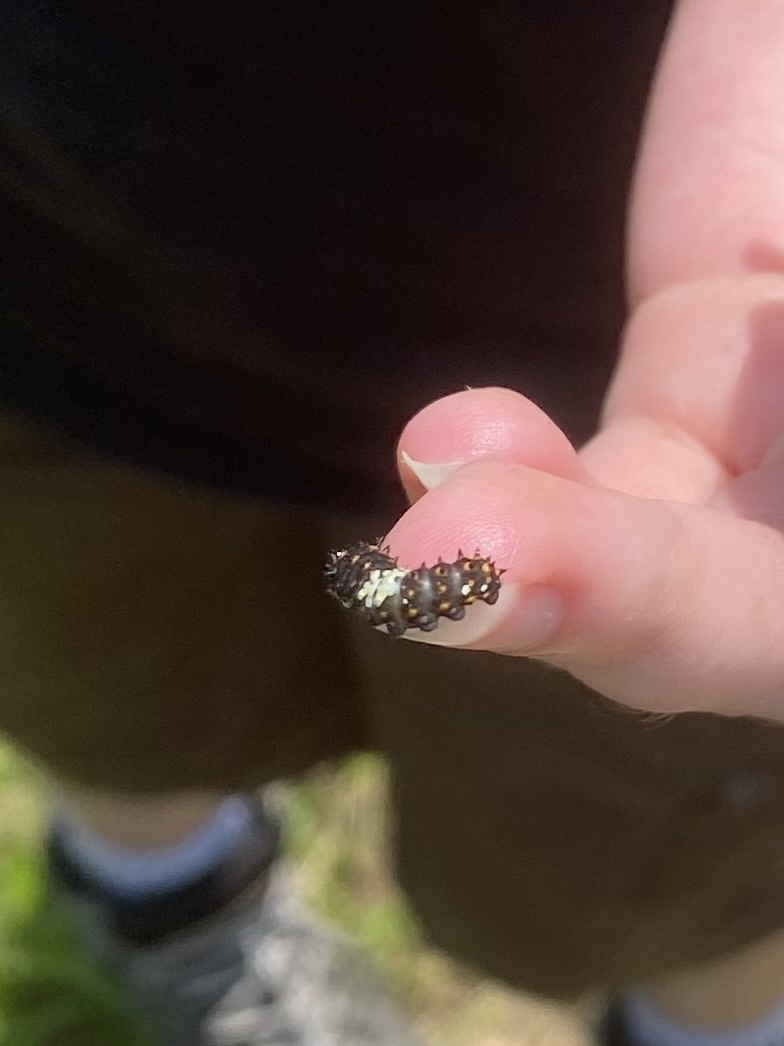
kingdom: Animalia
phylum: Arthropoda
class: Insecta
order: Lepidoptera
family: Papilionidae
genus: Papilio
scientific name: Papilio polyxenes
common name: Black swallowtail
